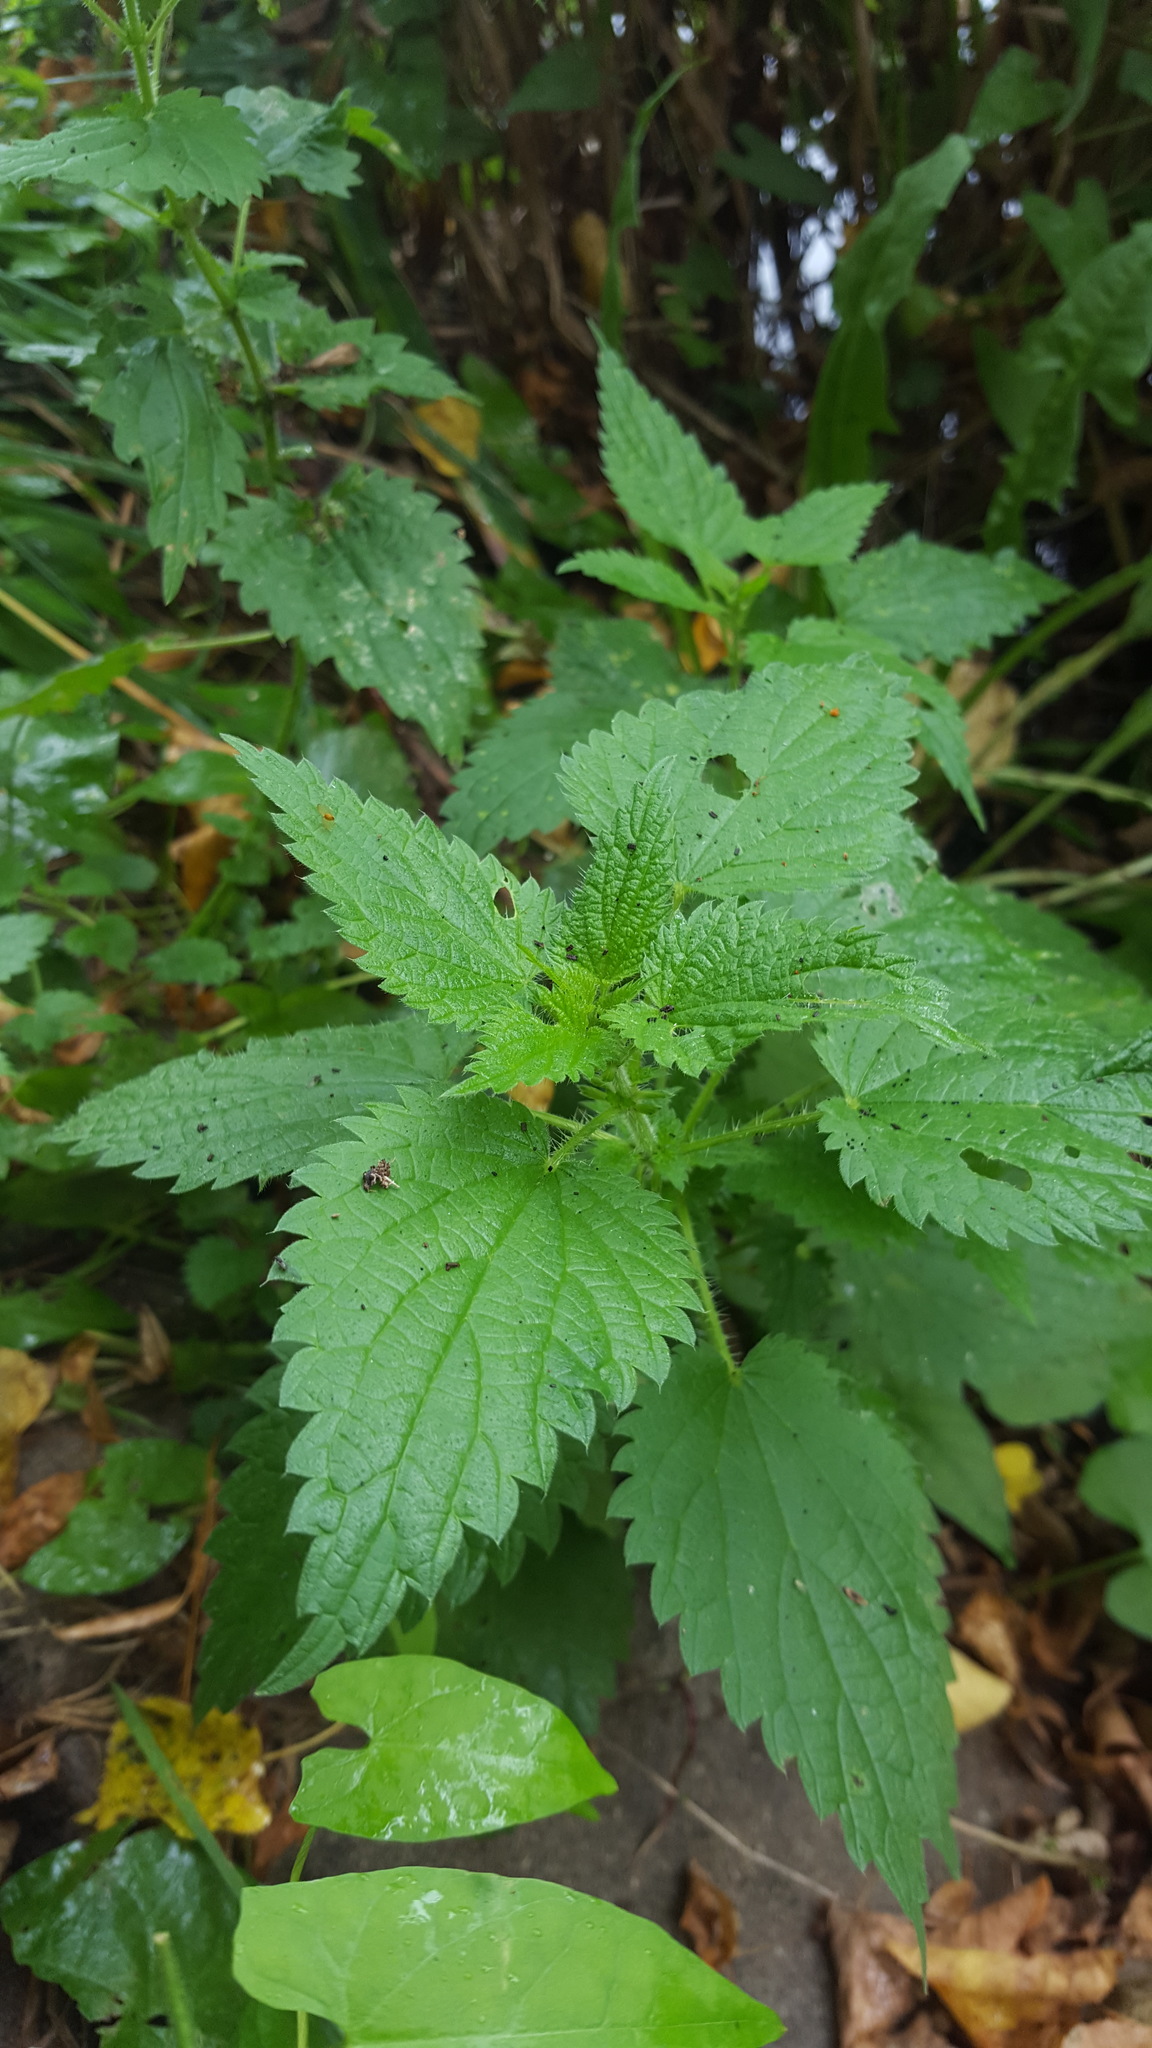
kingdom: Plantae
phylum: Tracheophyta
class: Magnoliopsida
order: Rosales
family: Urticaceae
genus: Urtica
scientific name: Urtica dioica
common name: Common nettle
